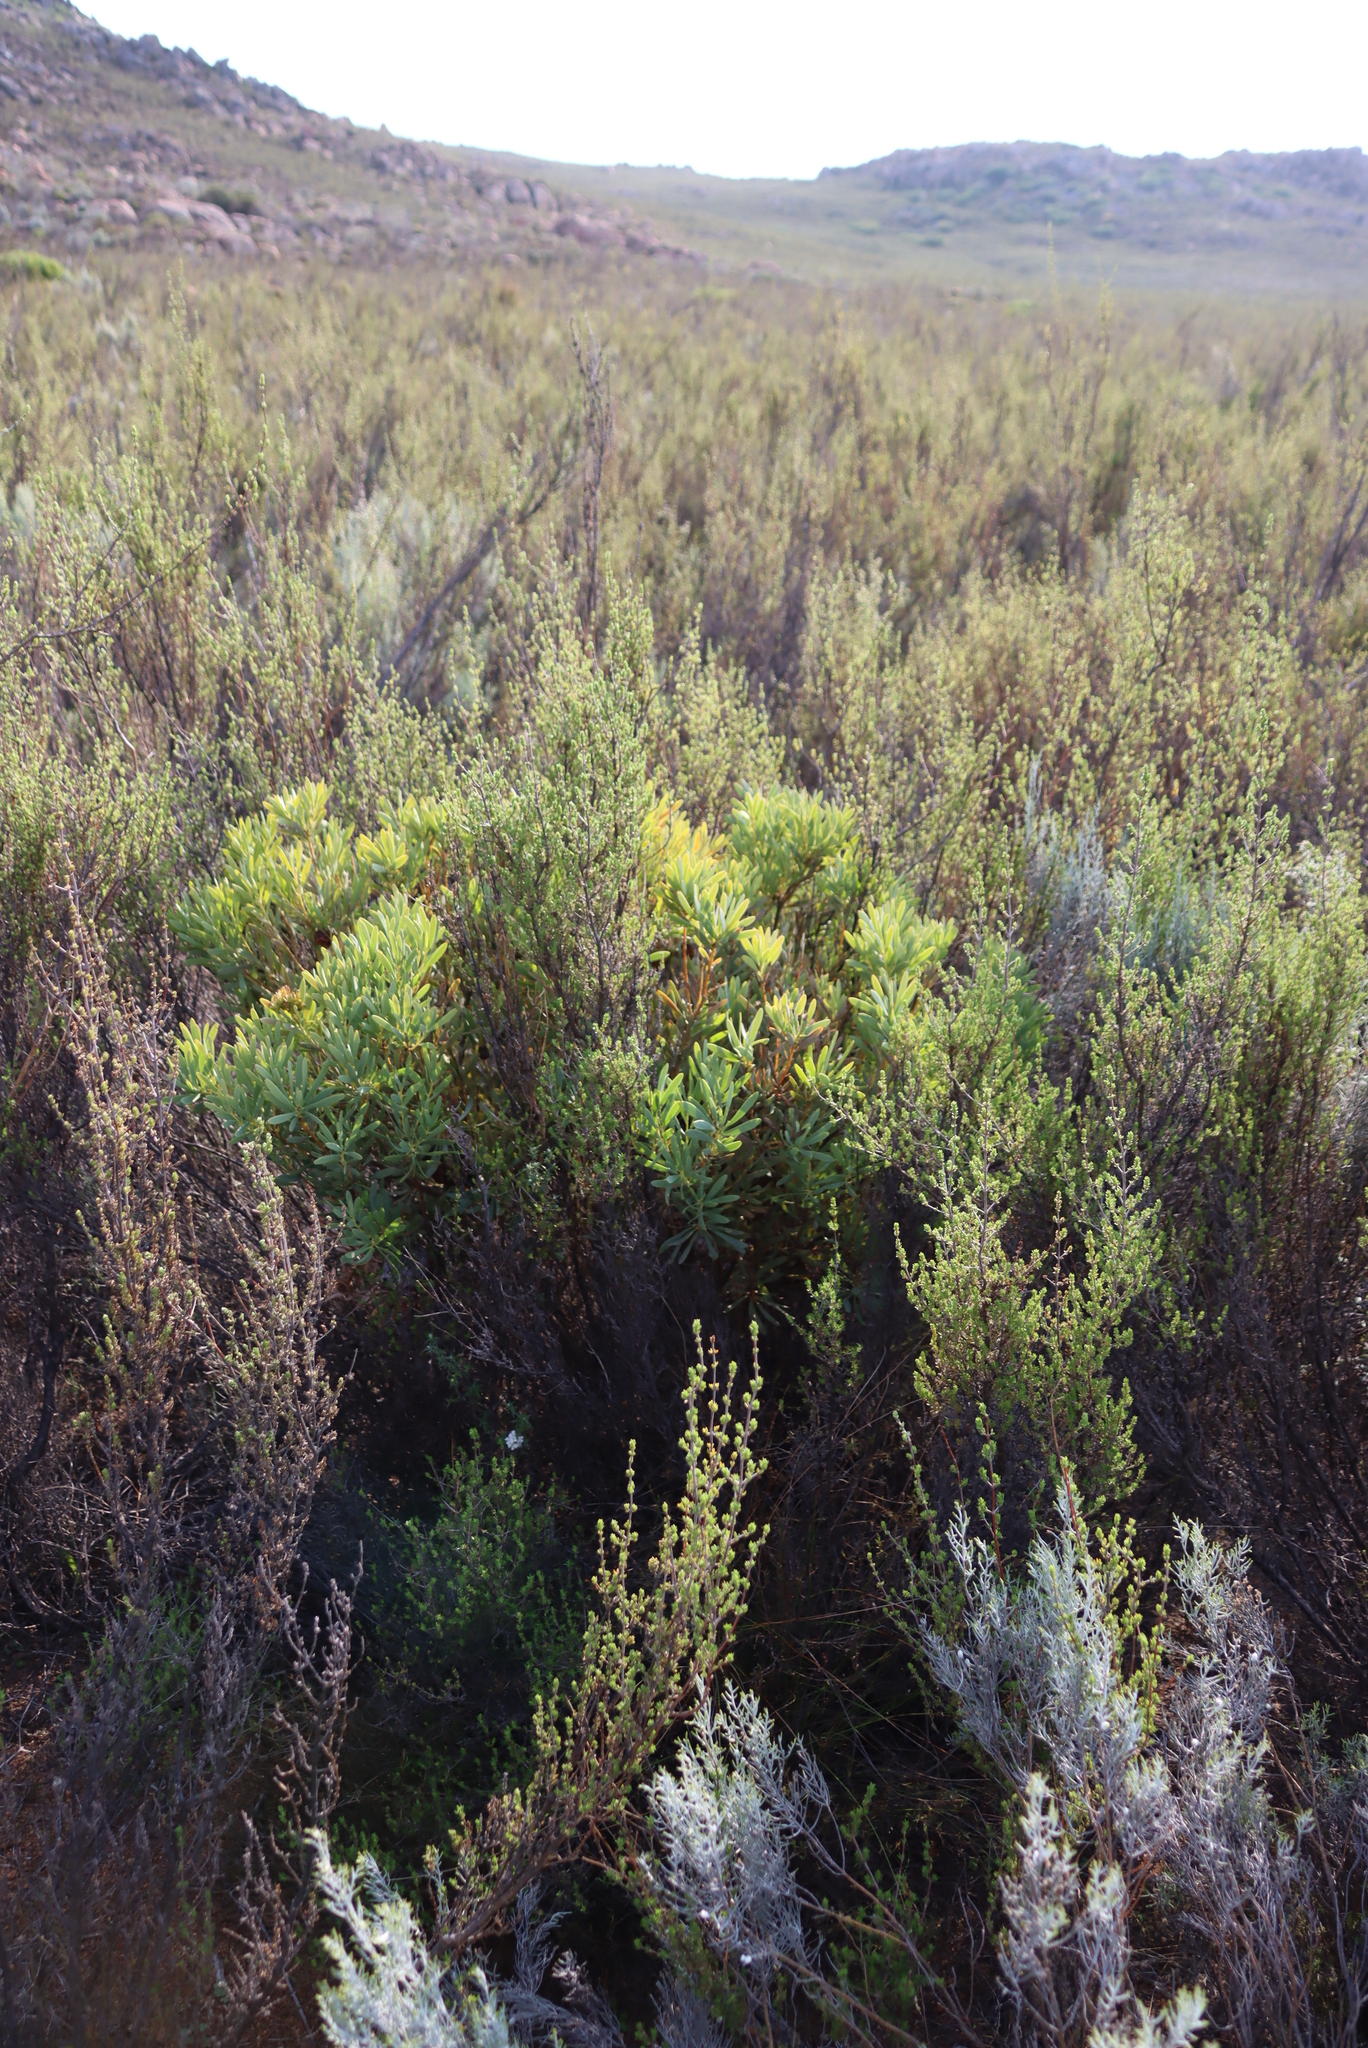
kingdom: Plantae
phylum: Tracheophyta
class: Magnoliopsida
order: Proteales
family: Proteaceae
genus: Protea
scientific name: Protea namaquana
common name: Kamiesberg sugarbush
